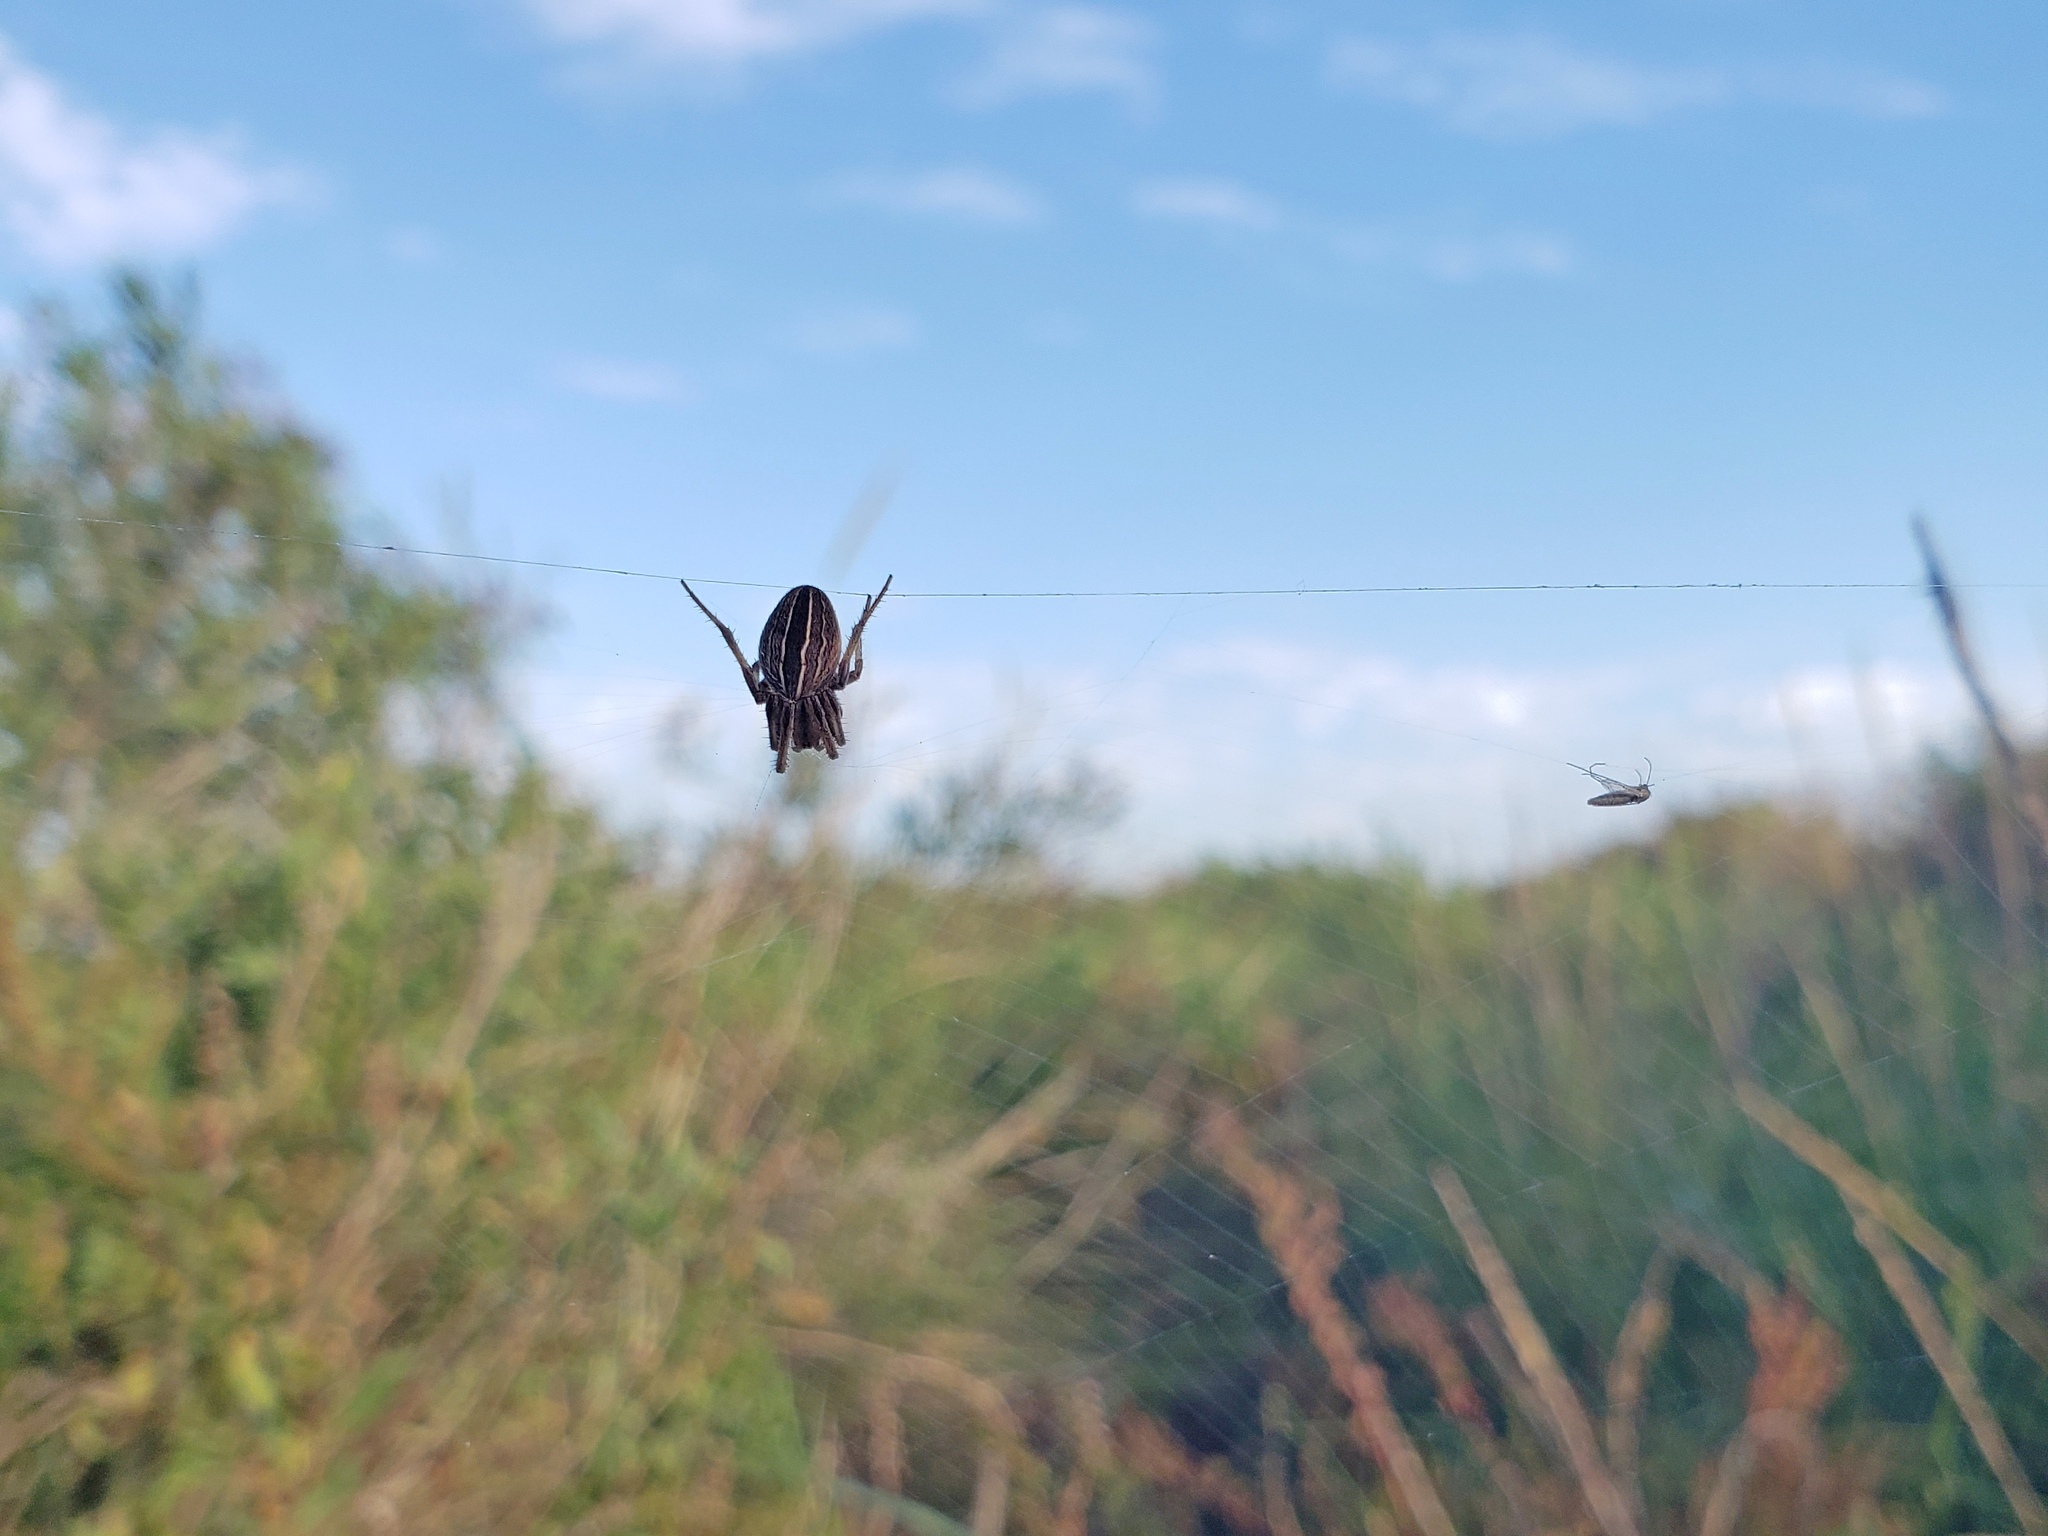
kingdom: Animalia
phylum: Arthropoda
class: Arachnida
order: Araneae
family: Araneidae
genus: Neoscona
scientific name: Neoscona pratensis
